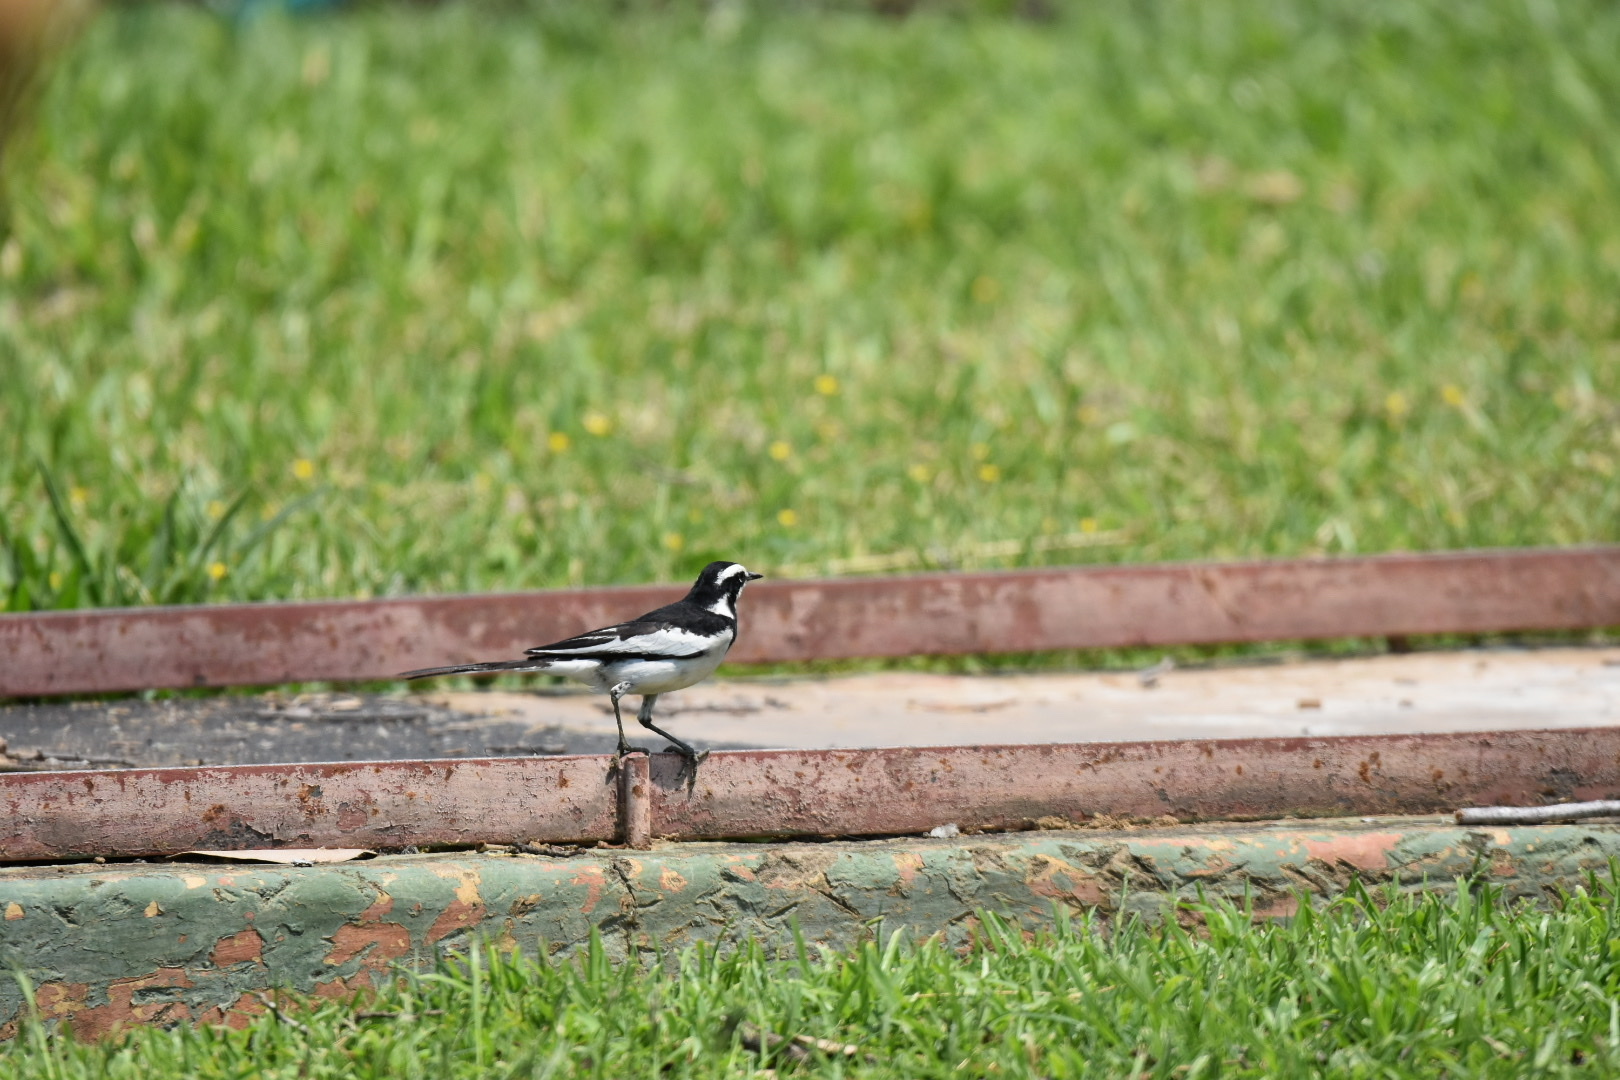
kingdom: Animalia
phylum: Chordata
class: Aves
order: Passeriformes
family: Motacillidae
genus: Motacilla
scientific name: Motacilla aguimp
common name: African pied wagtail
